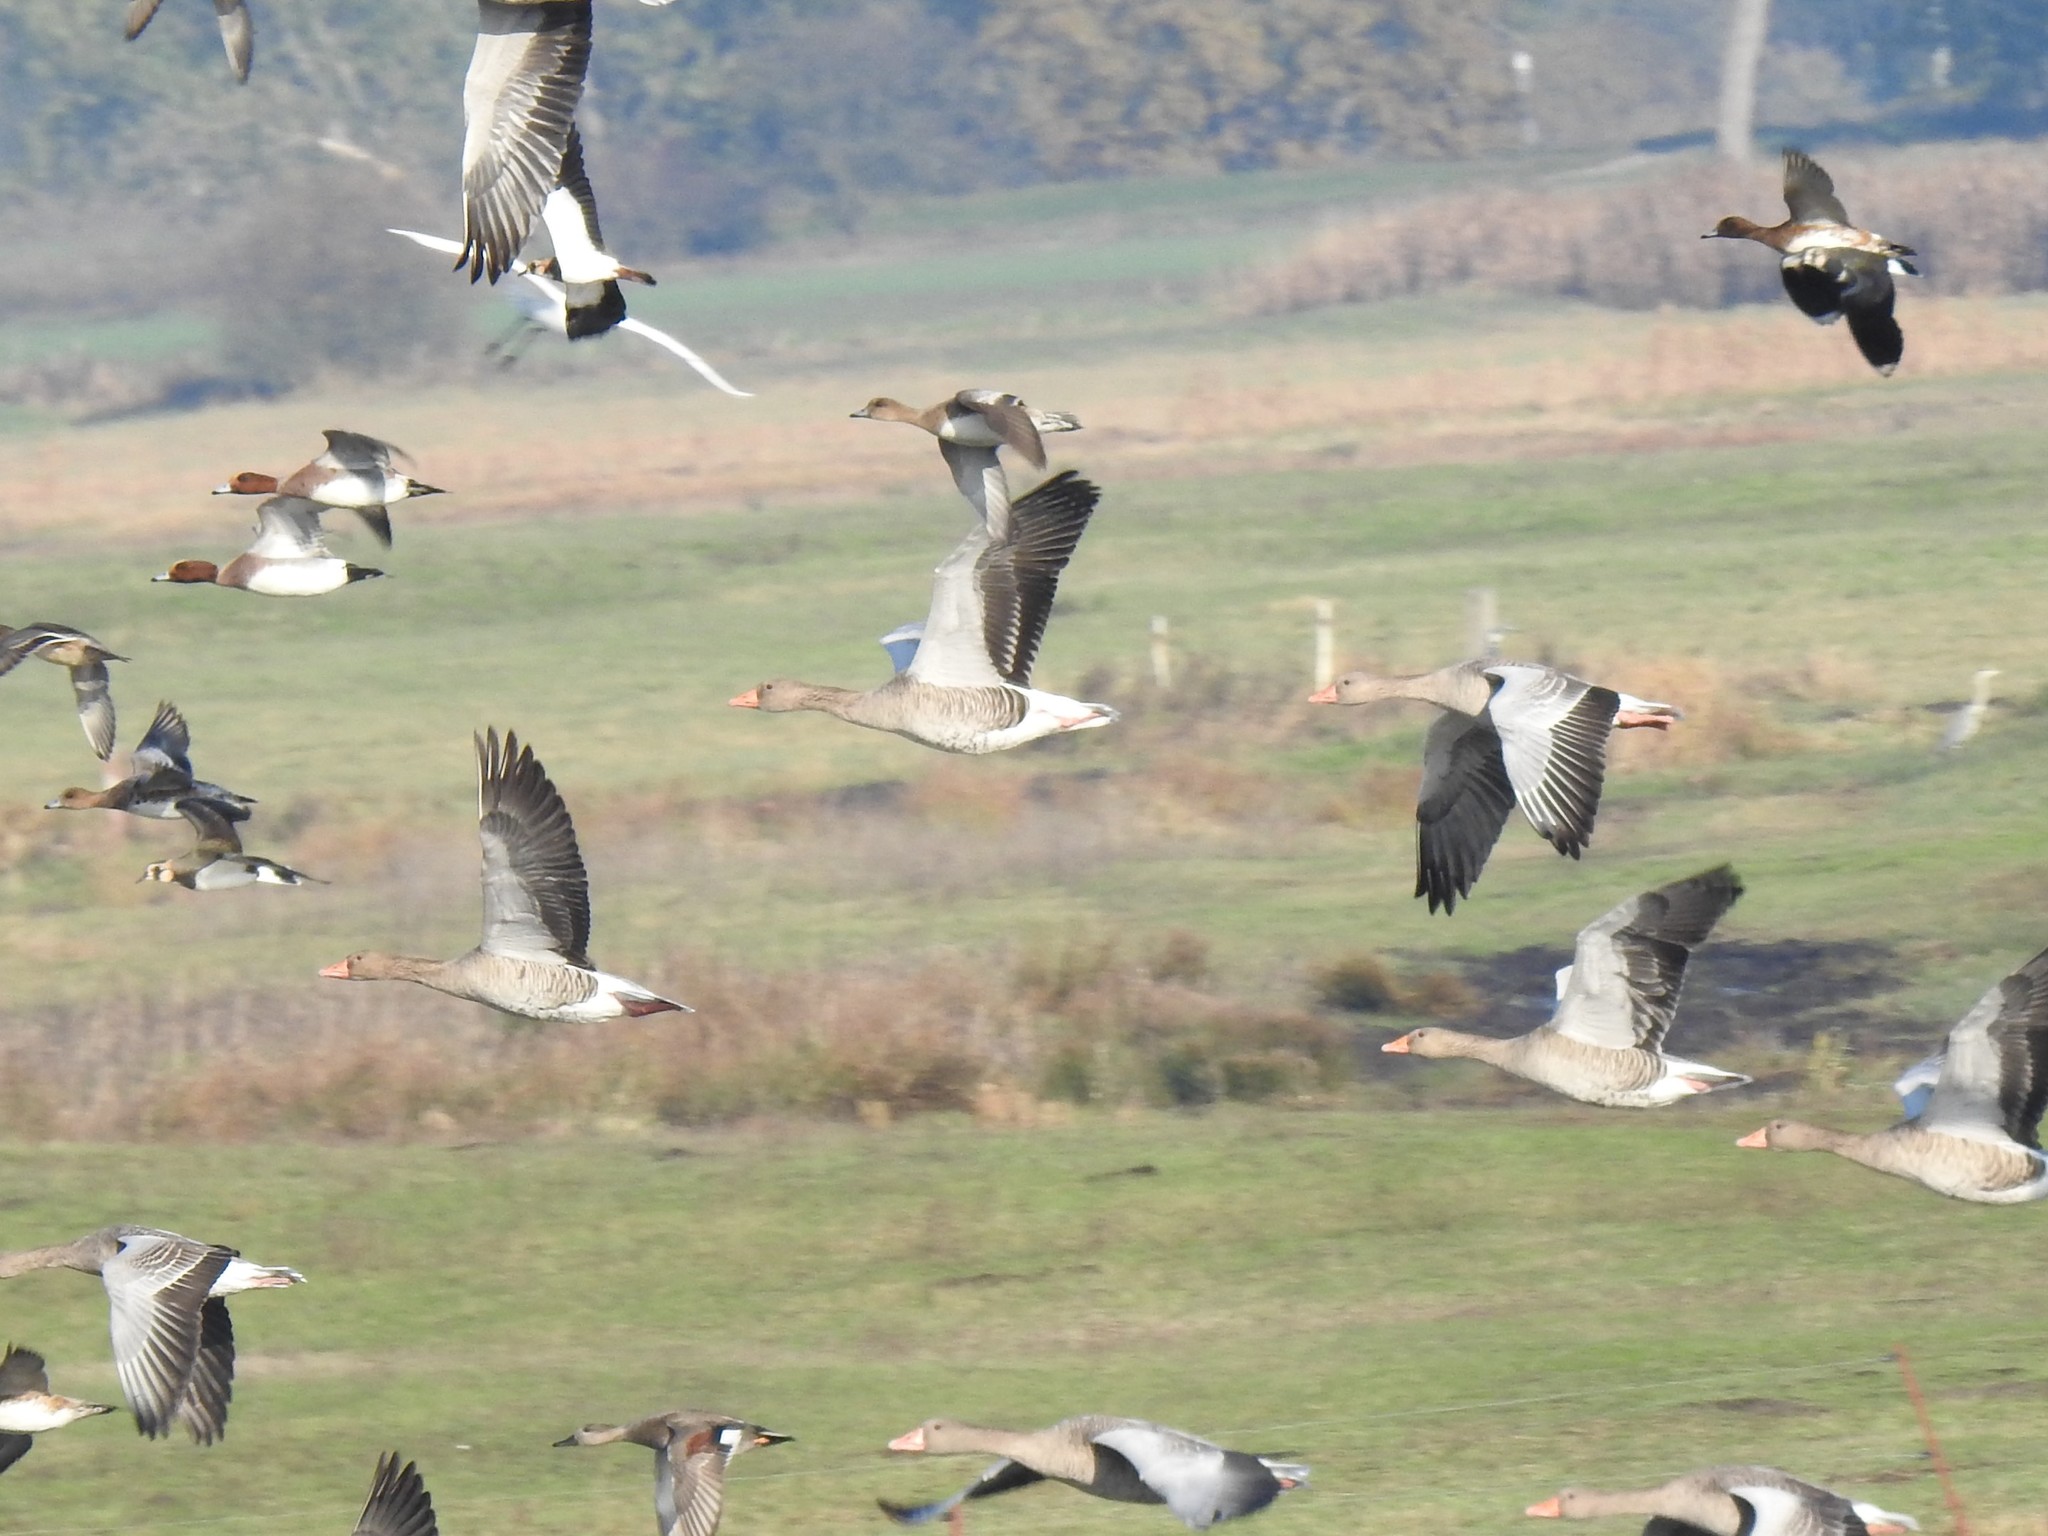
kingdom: Animalia
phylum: Chordata
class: Aves
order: Anseriformes
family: Anatidae
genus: Anser
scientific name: Anser anser
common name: Greylag goose
